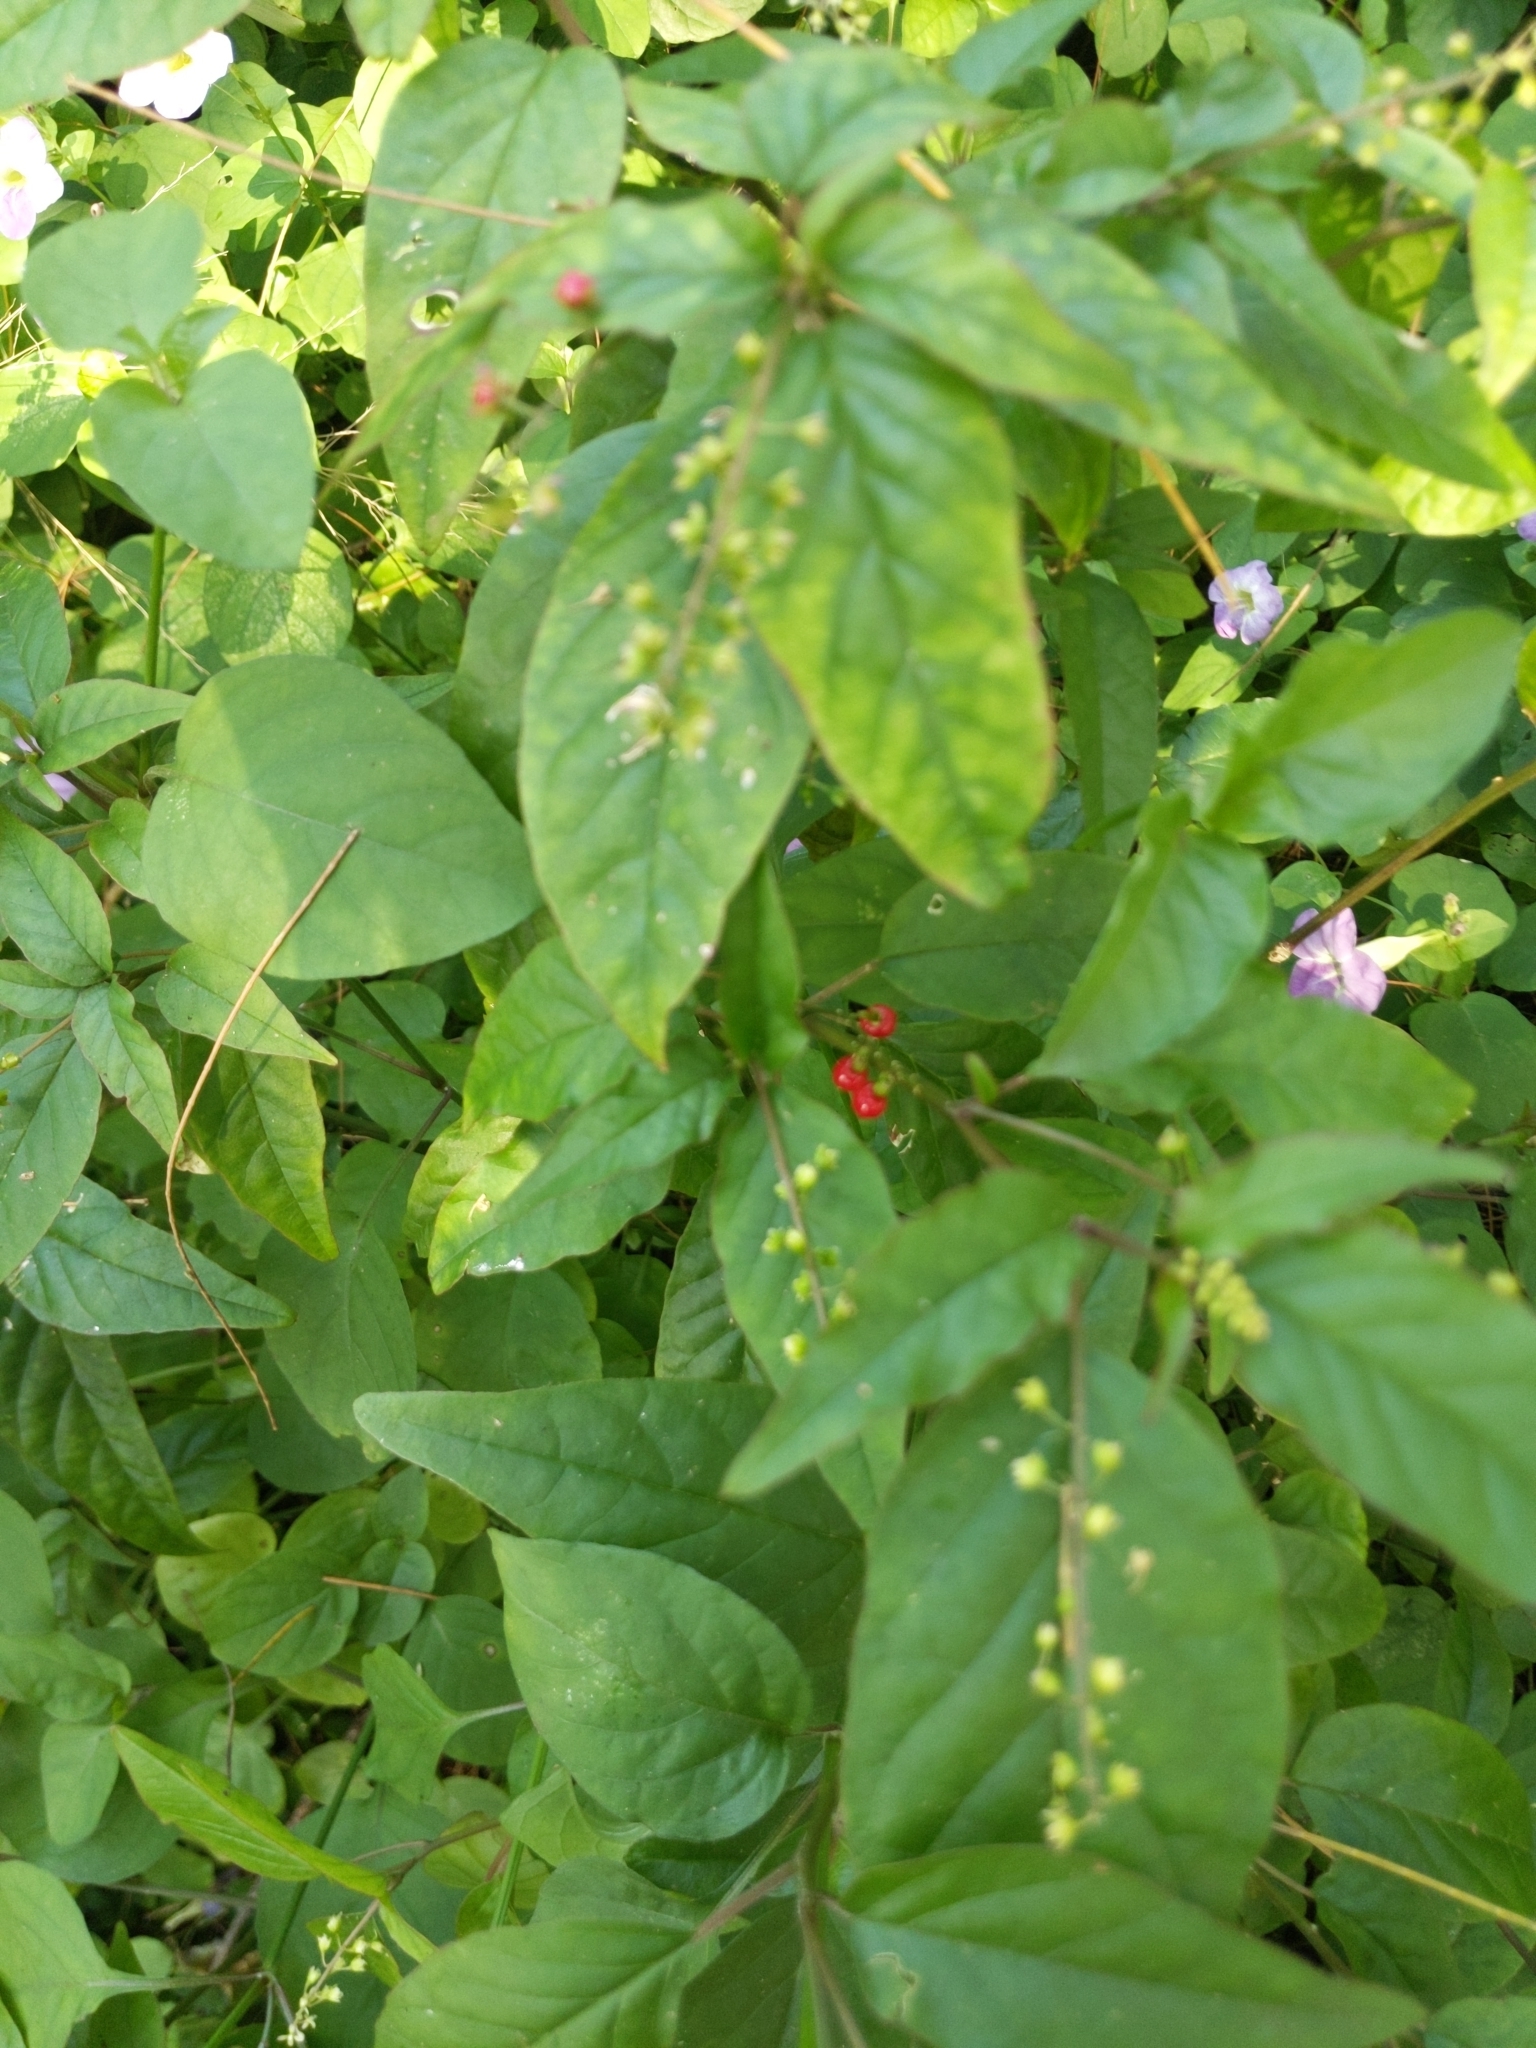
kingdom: Plantae
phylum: Tracheophyta
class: Magnoliopsida
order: Caryophyllales
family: Phytolaccaceae
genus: Rivina
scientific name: Rivina humilis
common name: Rougeplant
